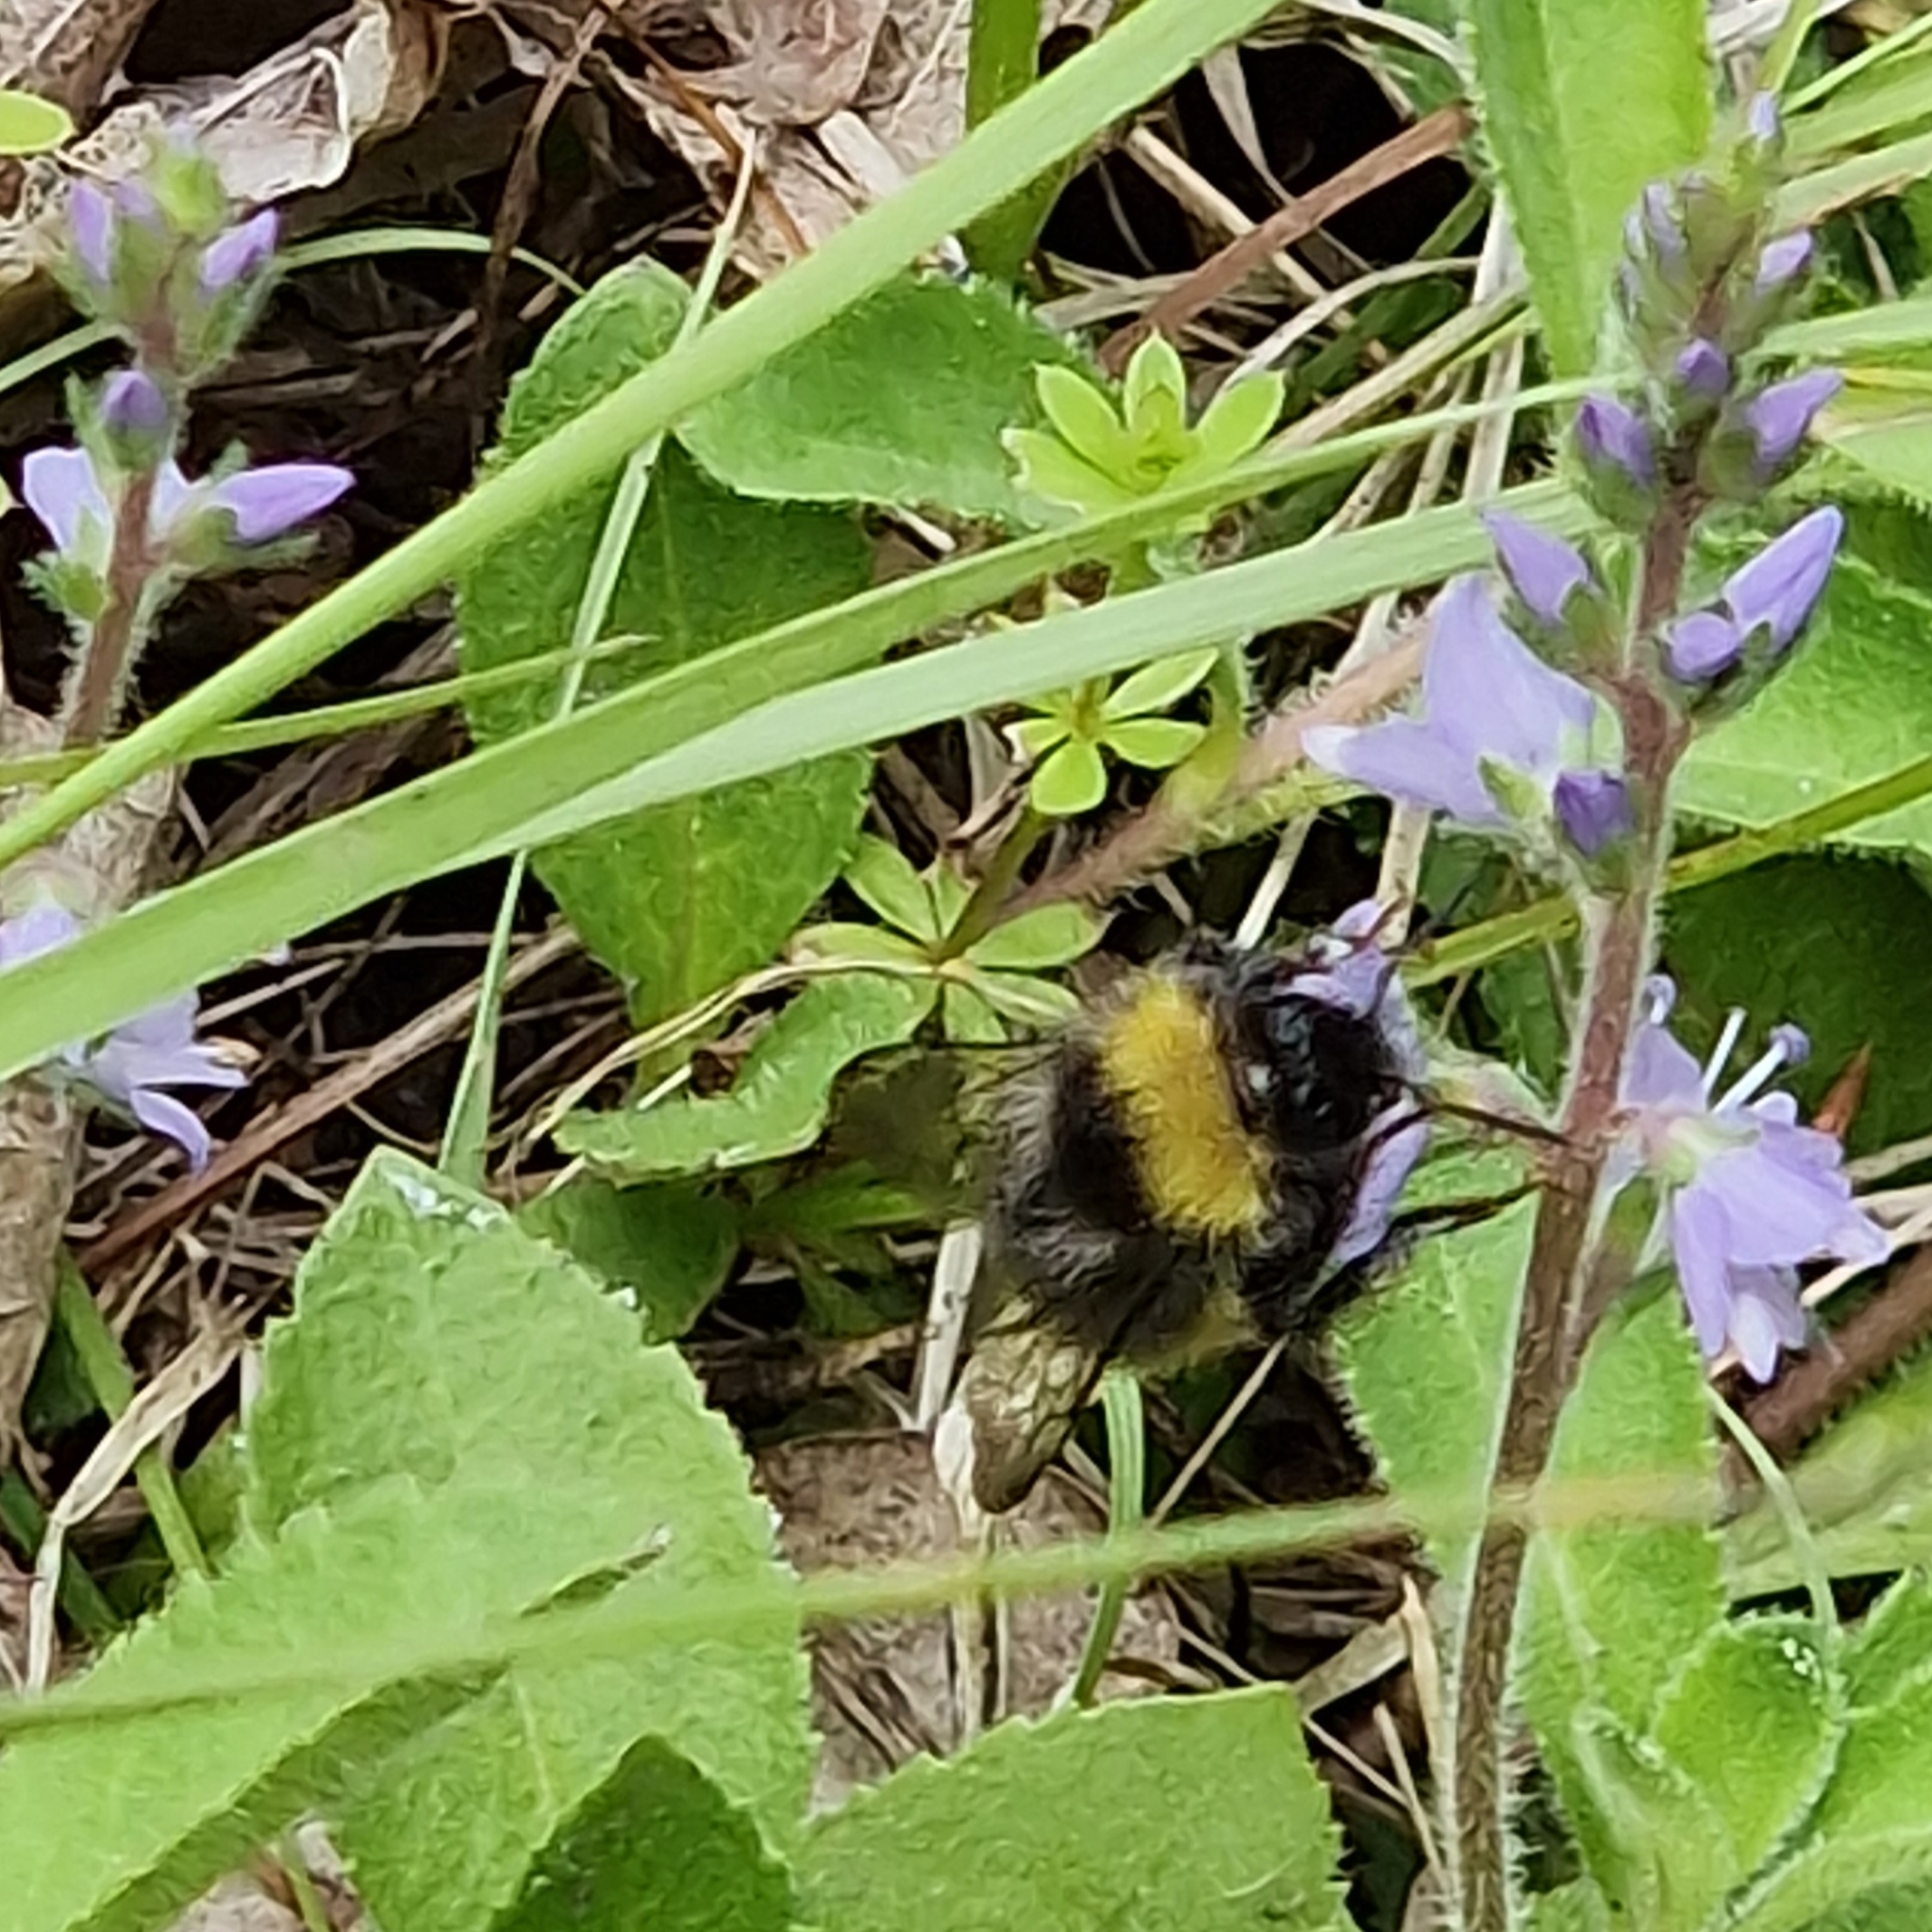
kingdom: Animalia
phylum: Arthropoda
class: Insecta
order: Hymenoptera
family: Apidae
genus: Bombus
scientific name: Bombus pratorum
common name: Early humble-bee
